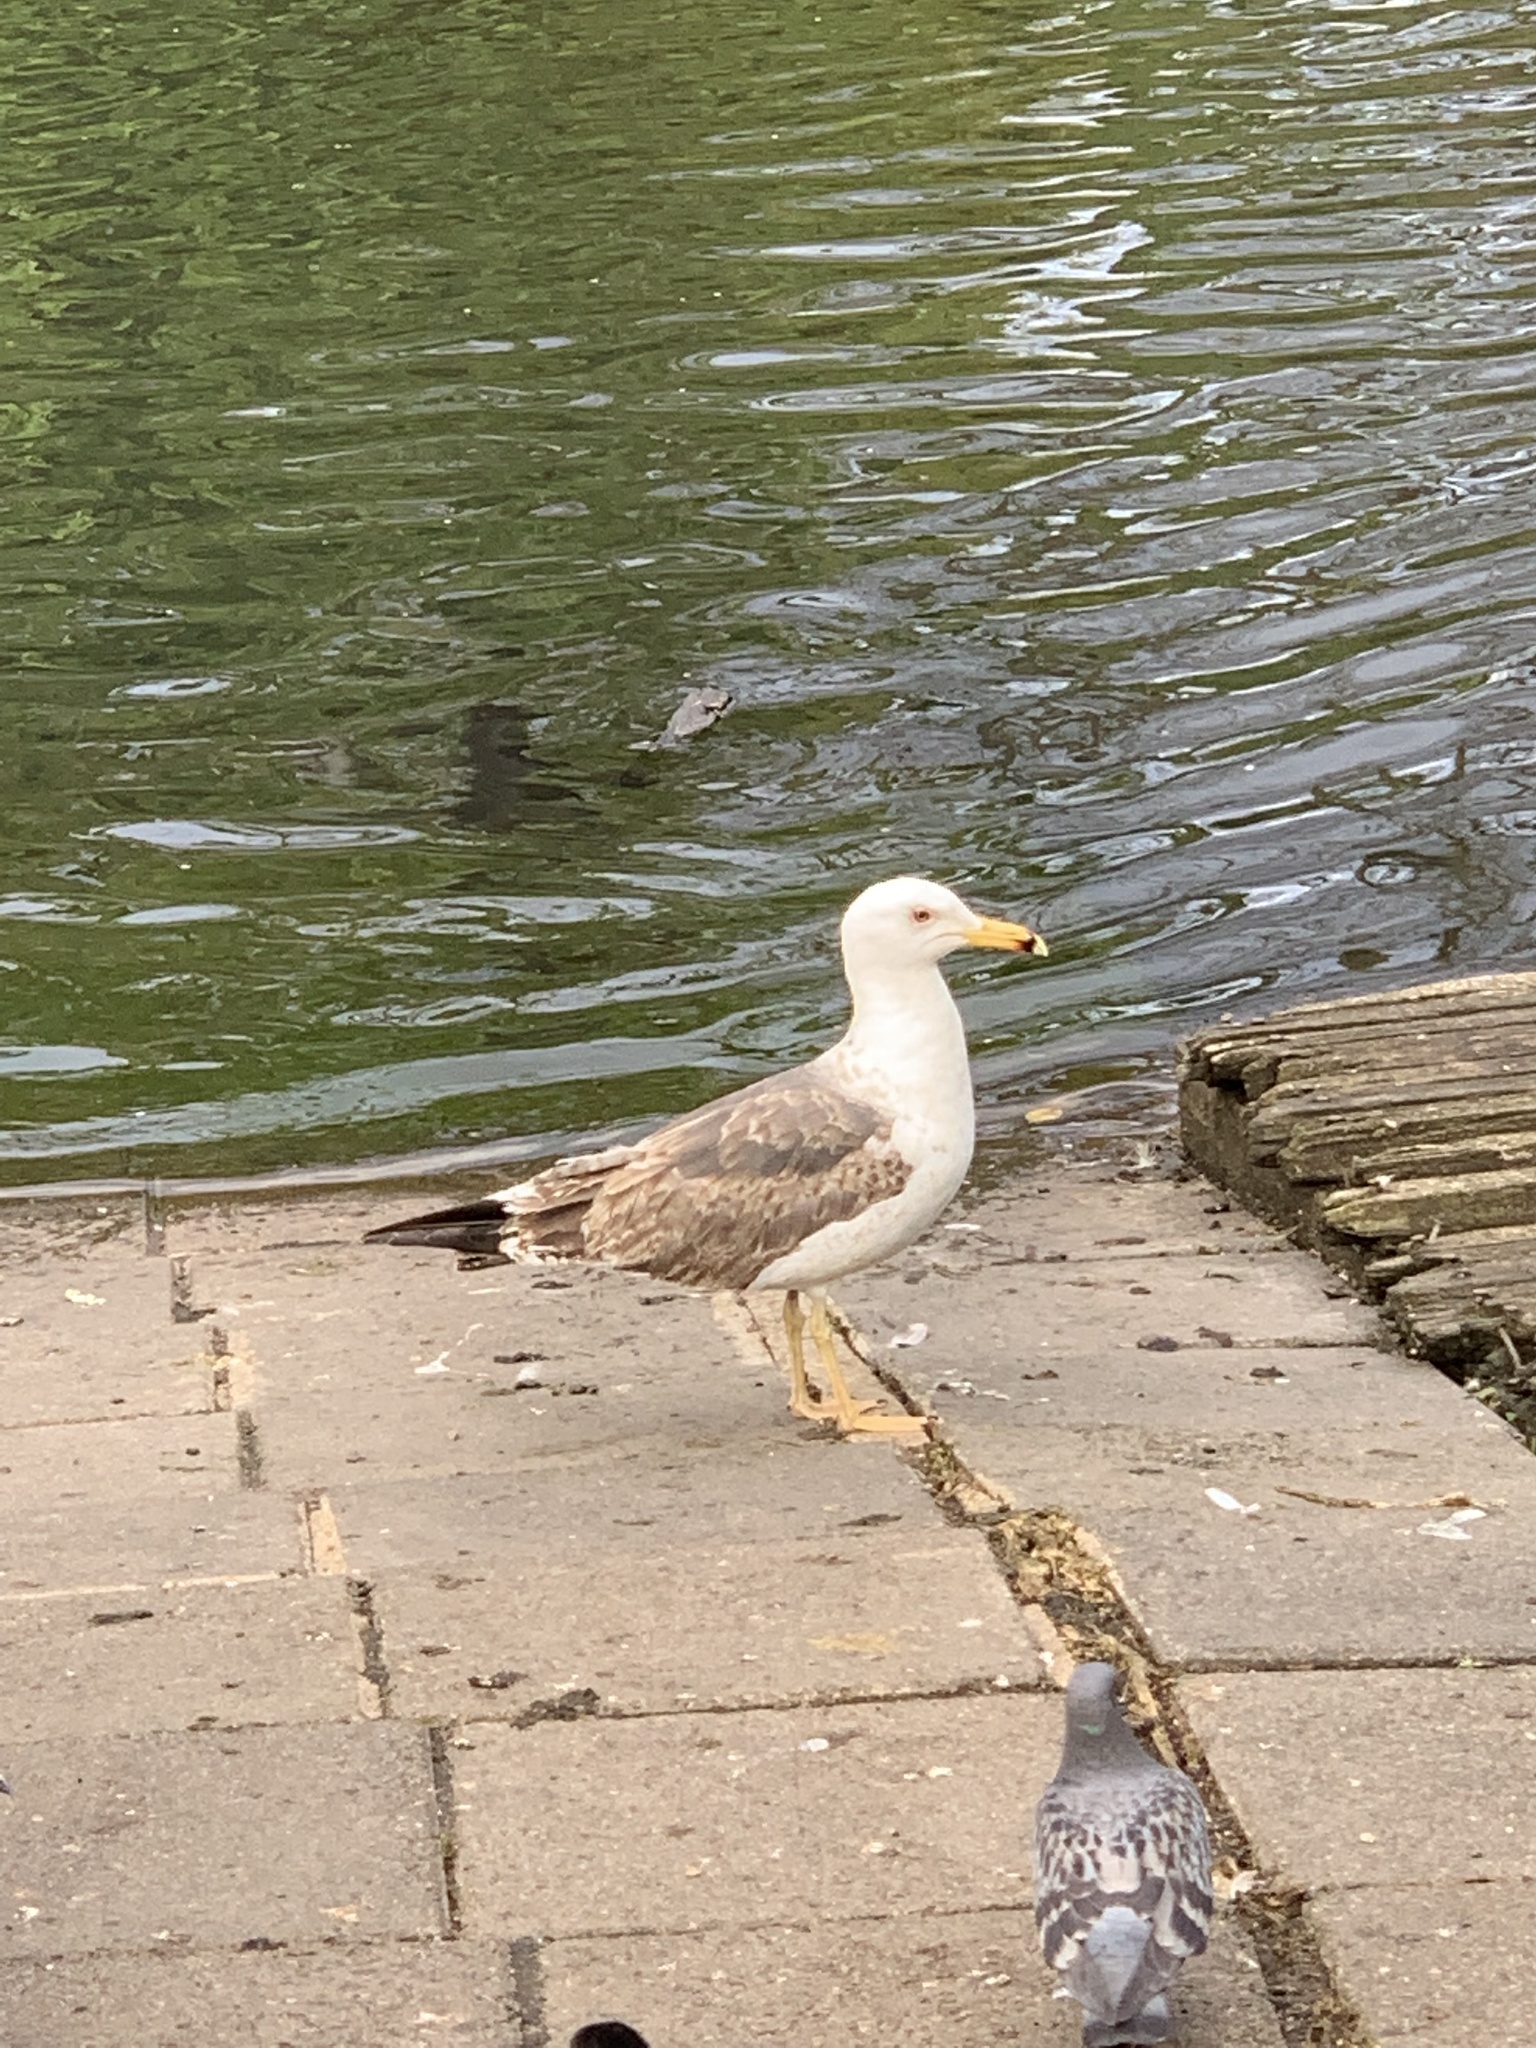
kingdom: Animalia
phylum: Chordata
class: Aves
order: Charadriiformes
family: Laridae
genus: Larus
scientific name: Larus fuscus
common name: Lesser black-backed gull
